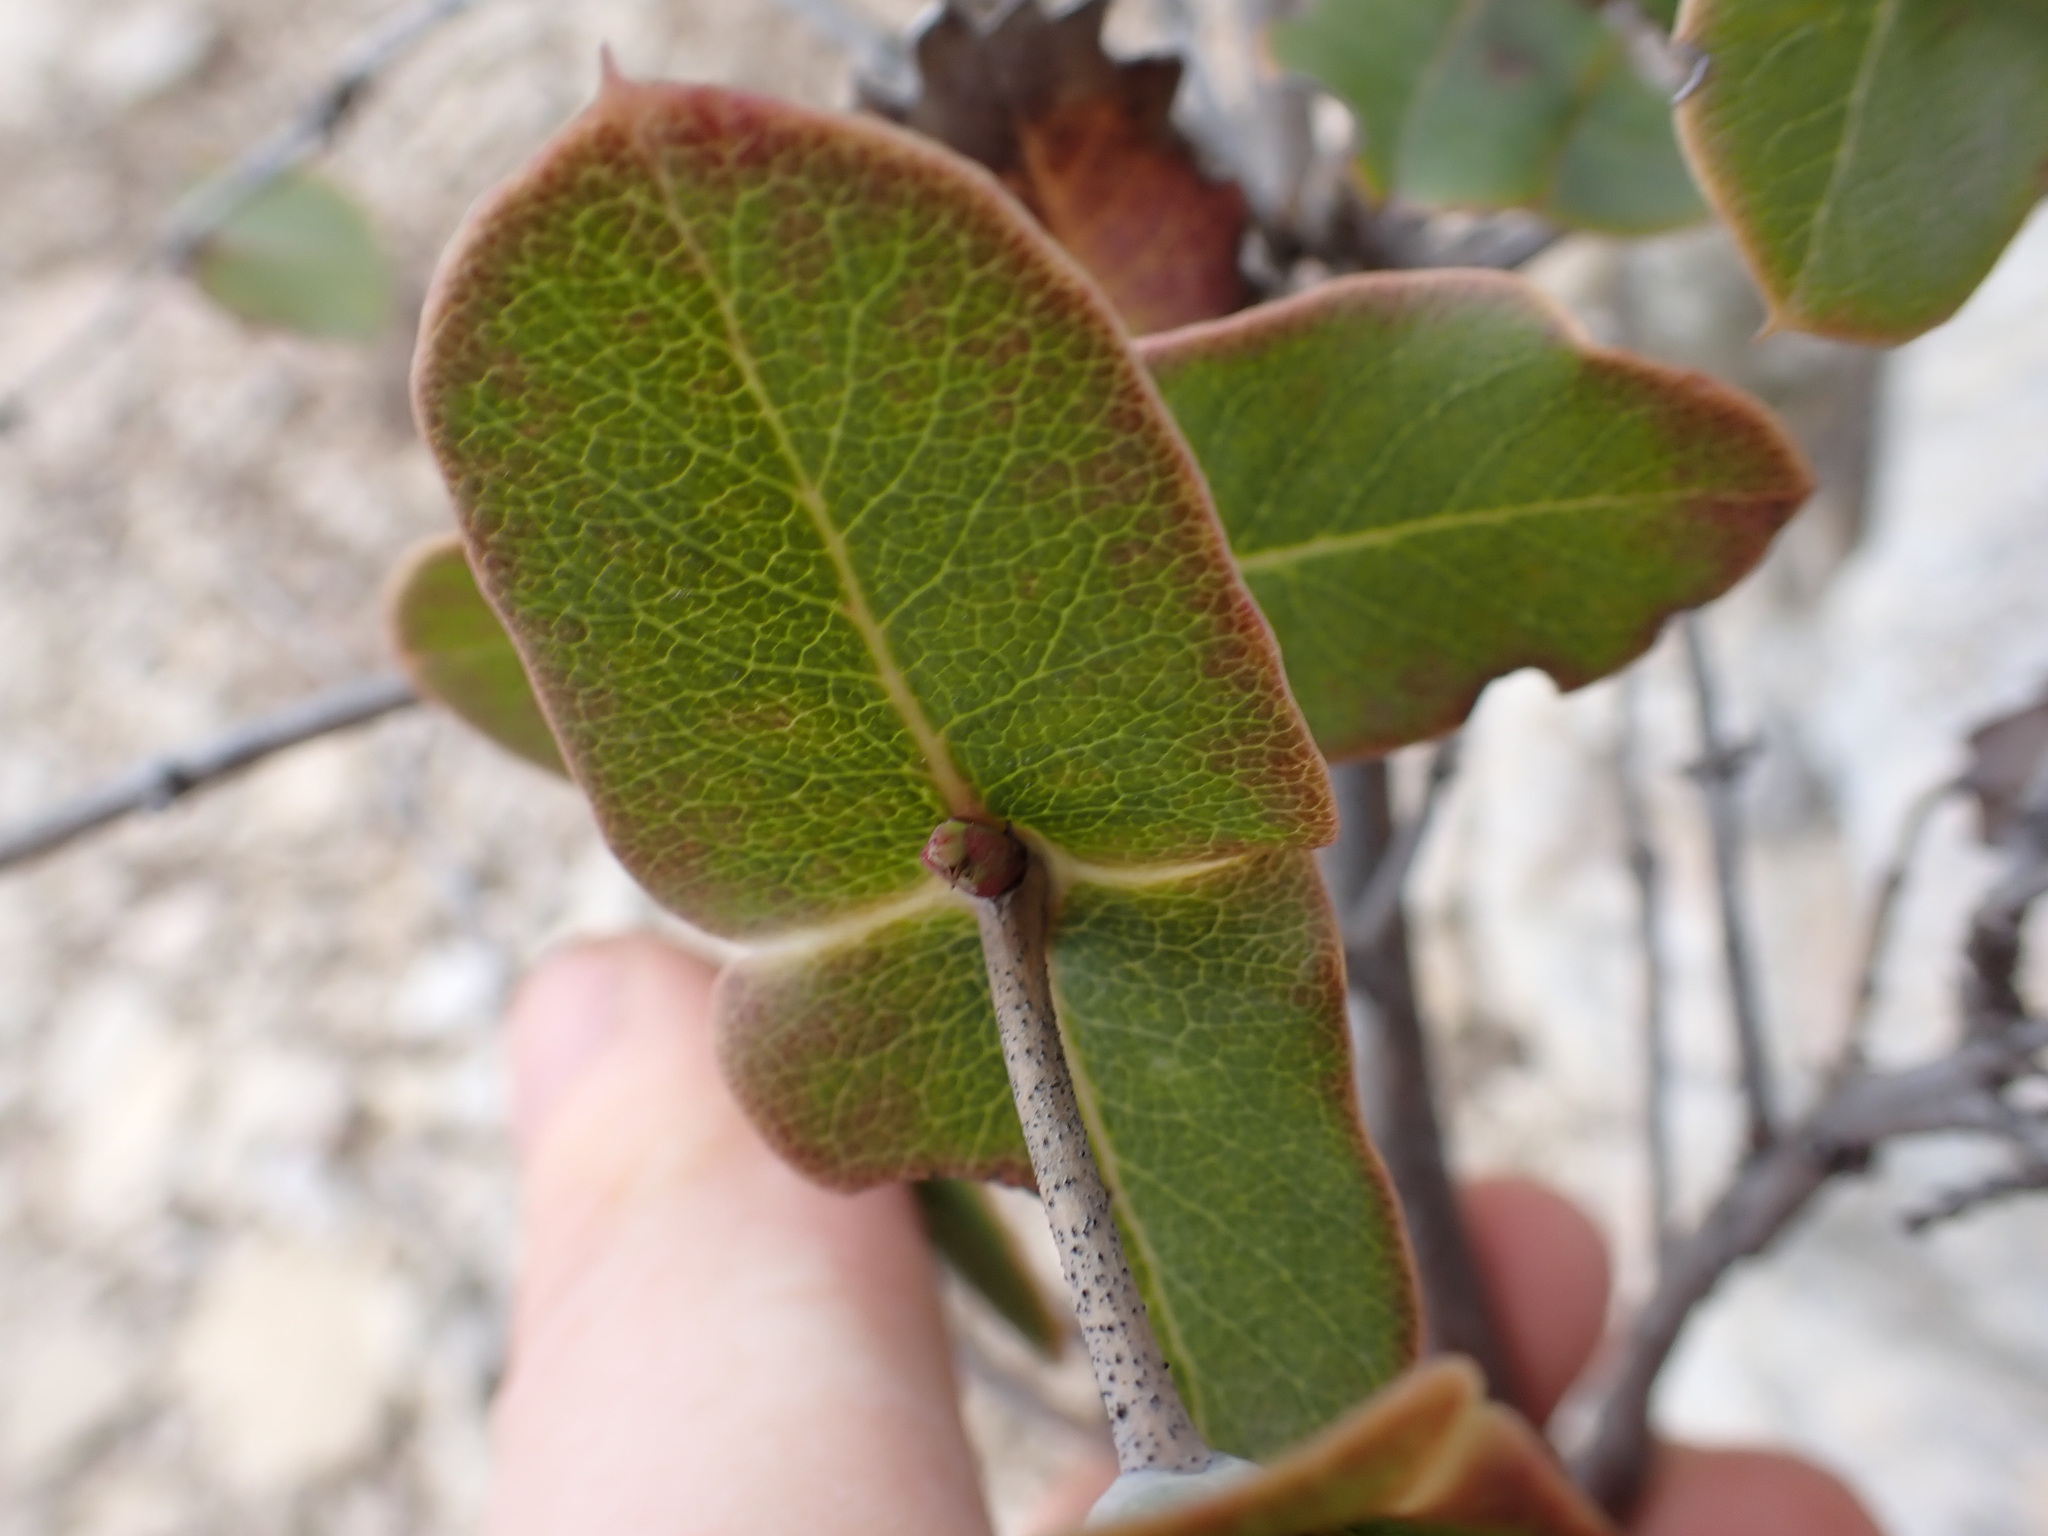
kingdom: Plantae
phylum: Tracheophyta
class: Magnoliopsida
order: Dipsacales
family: Caprifoliaceae
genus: Lonicera
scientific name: Lonicera implexa
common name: Minorca honeysuckle
